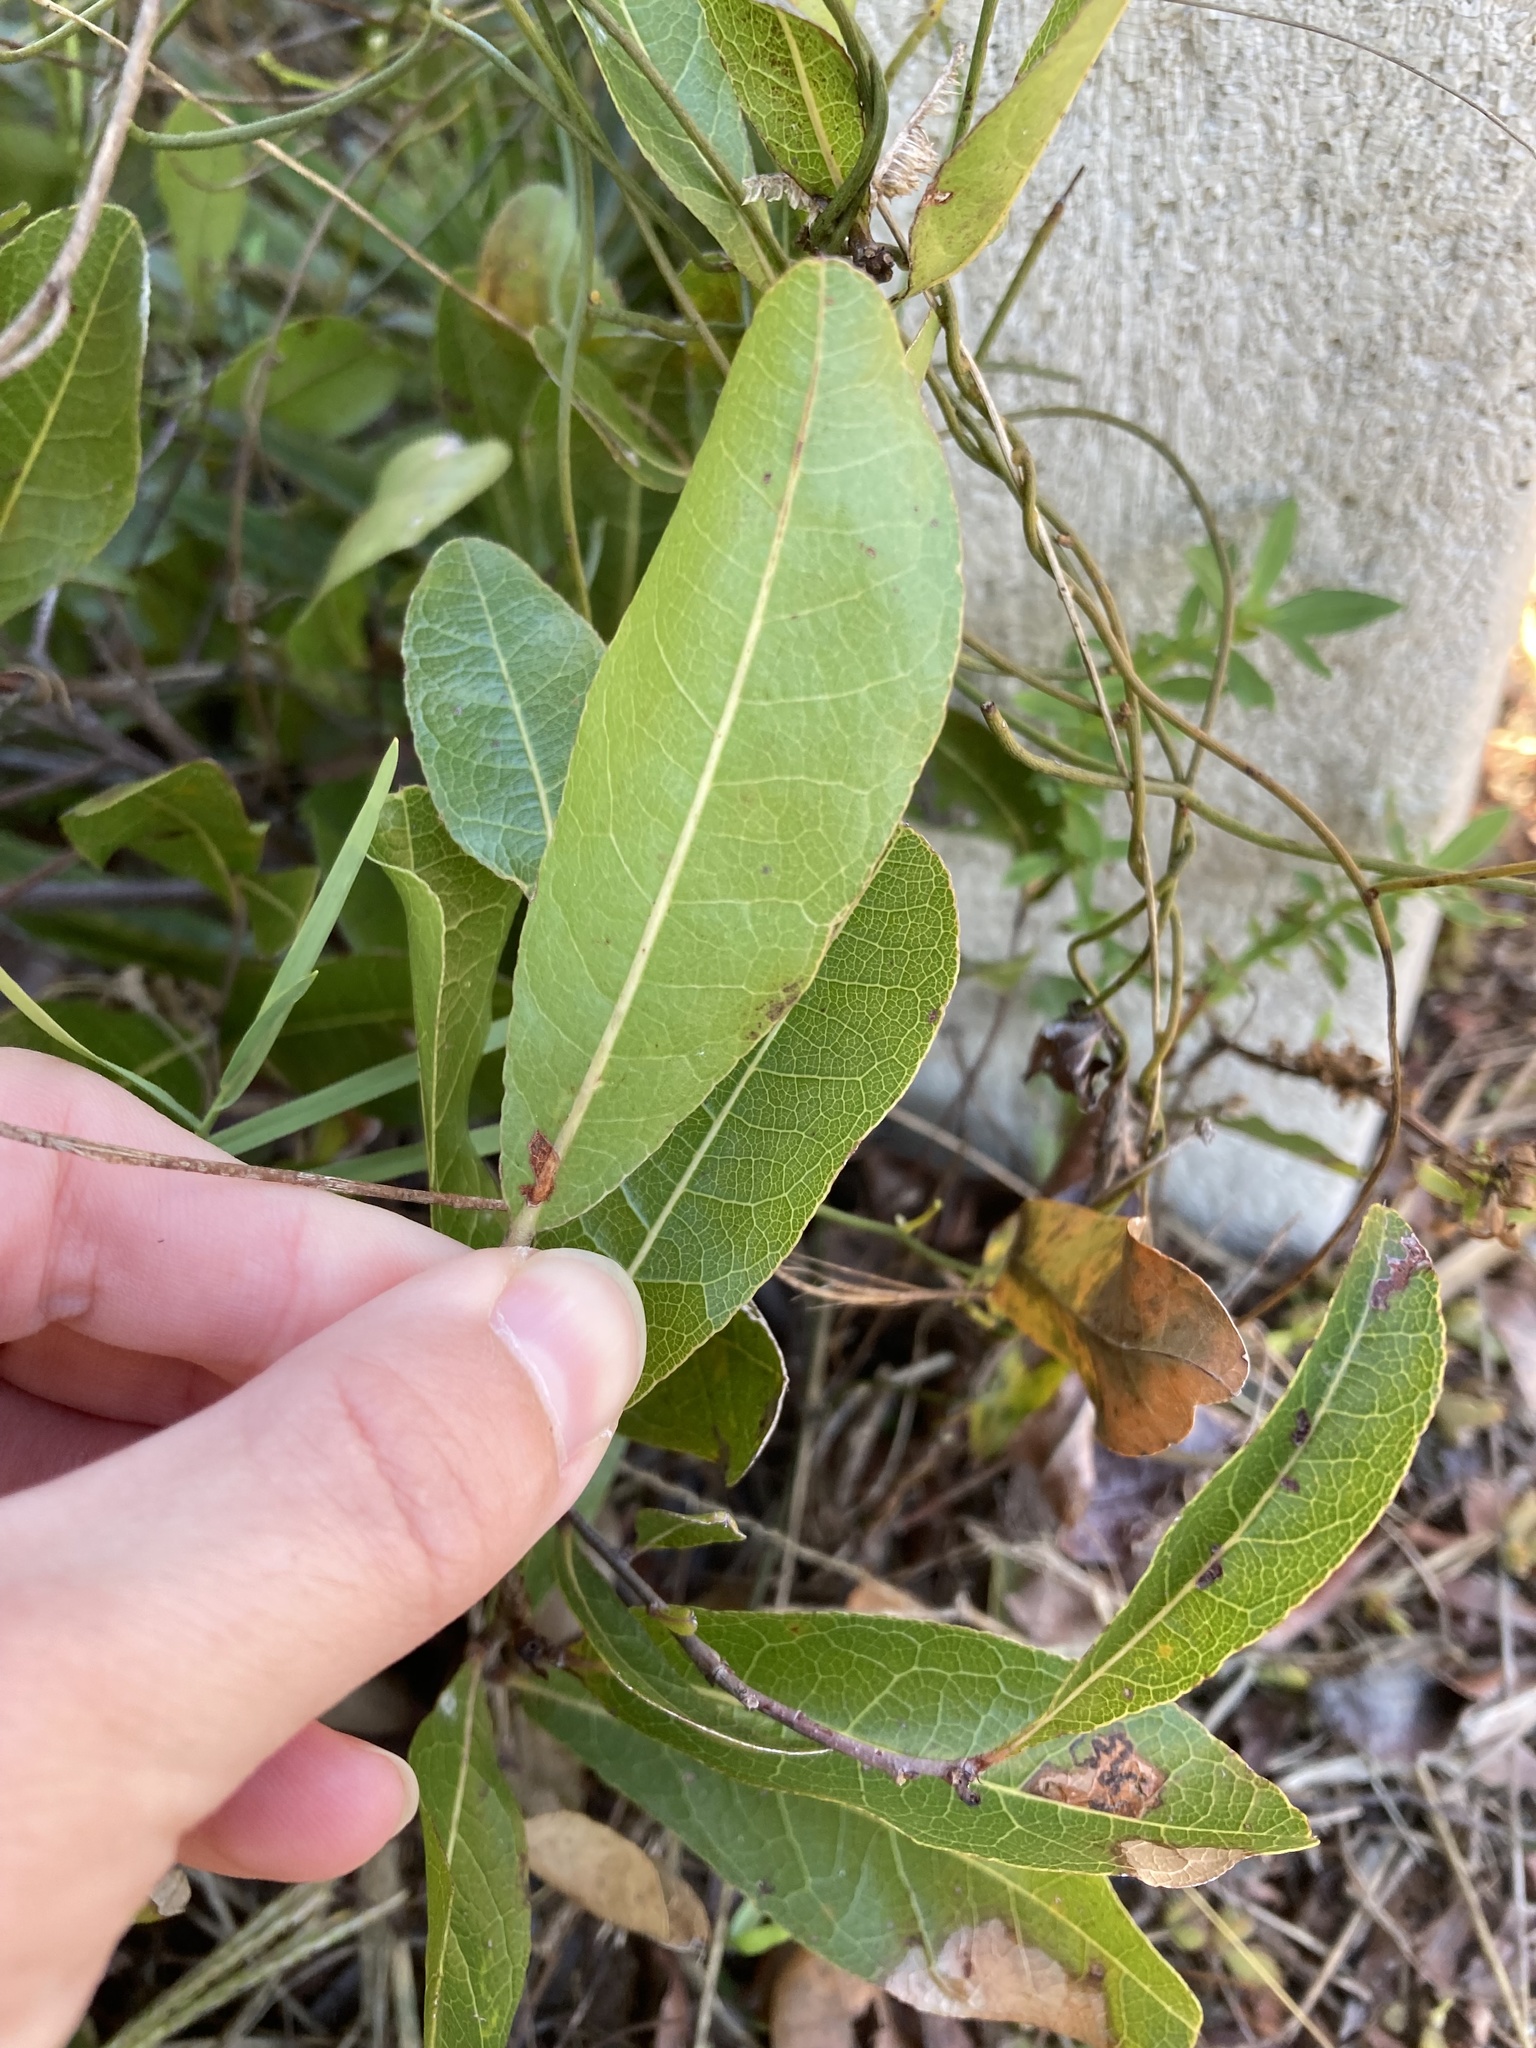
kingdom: Plantae
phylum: Tracheophyta
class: Magnoliopsida
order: Malpighiales
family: Chrysobalanaceae
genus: Geobalanus
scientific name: Geobalanus oblongifolius
